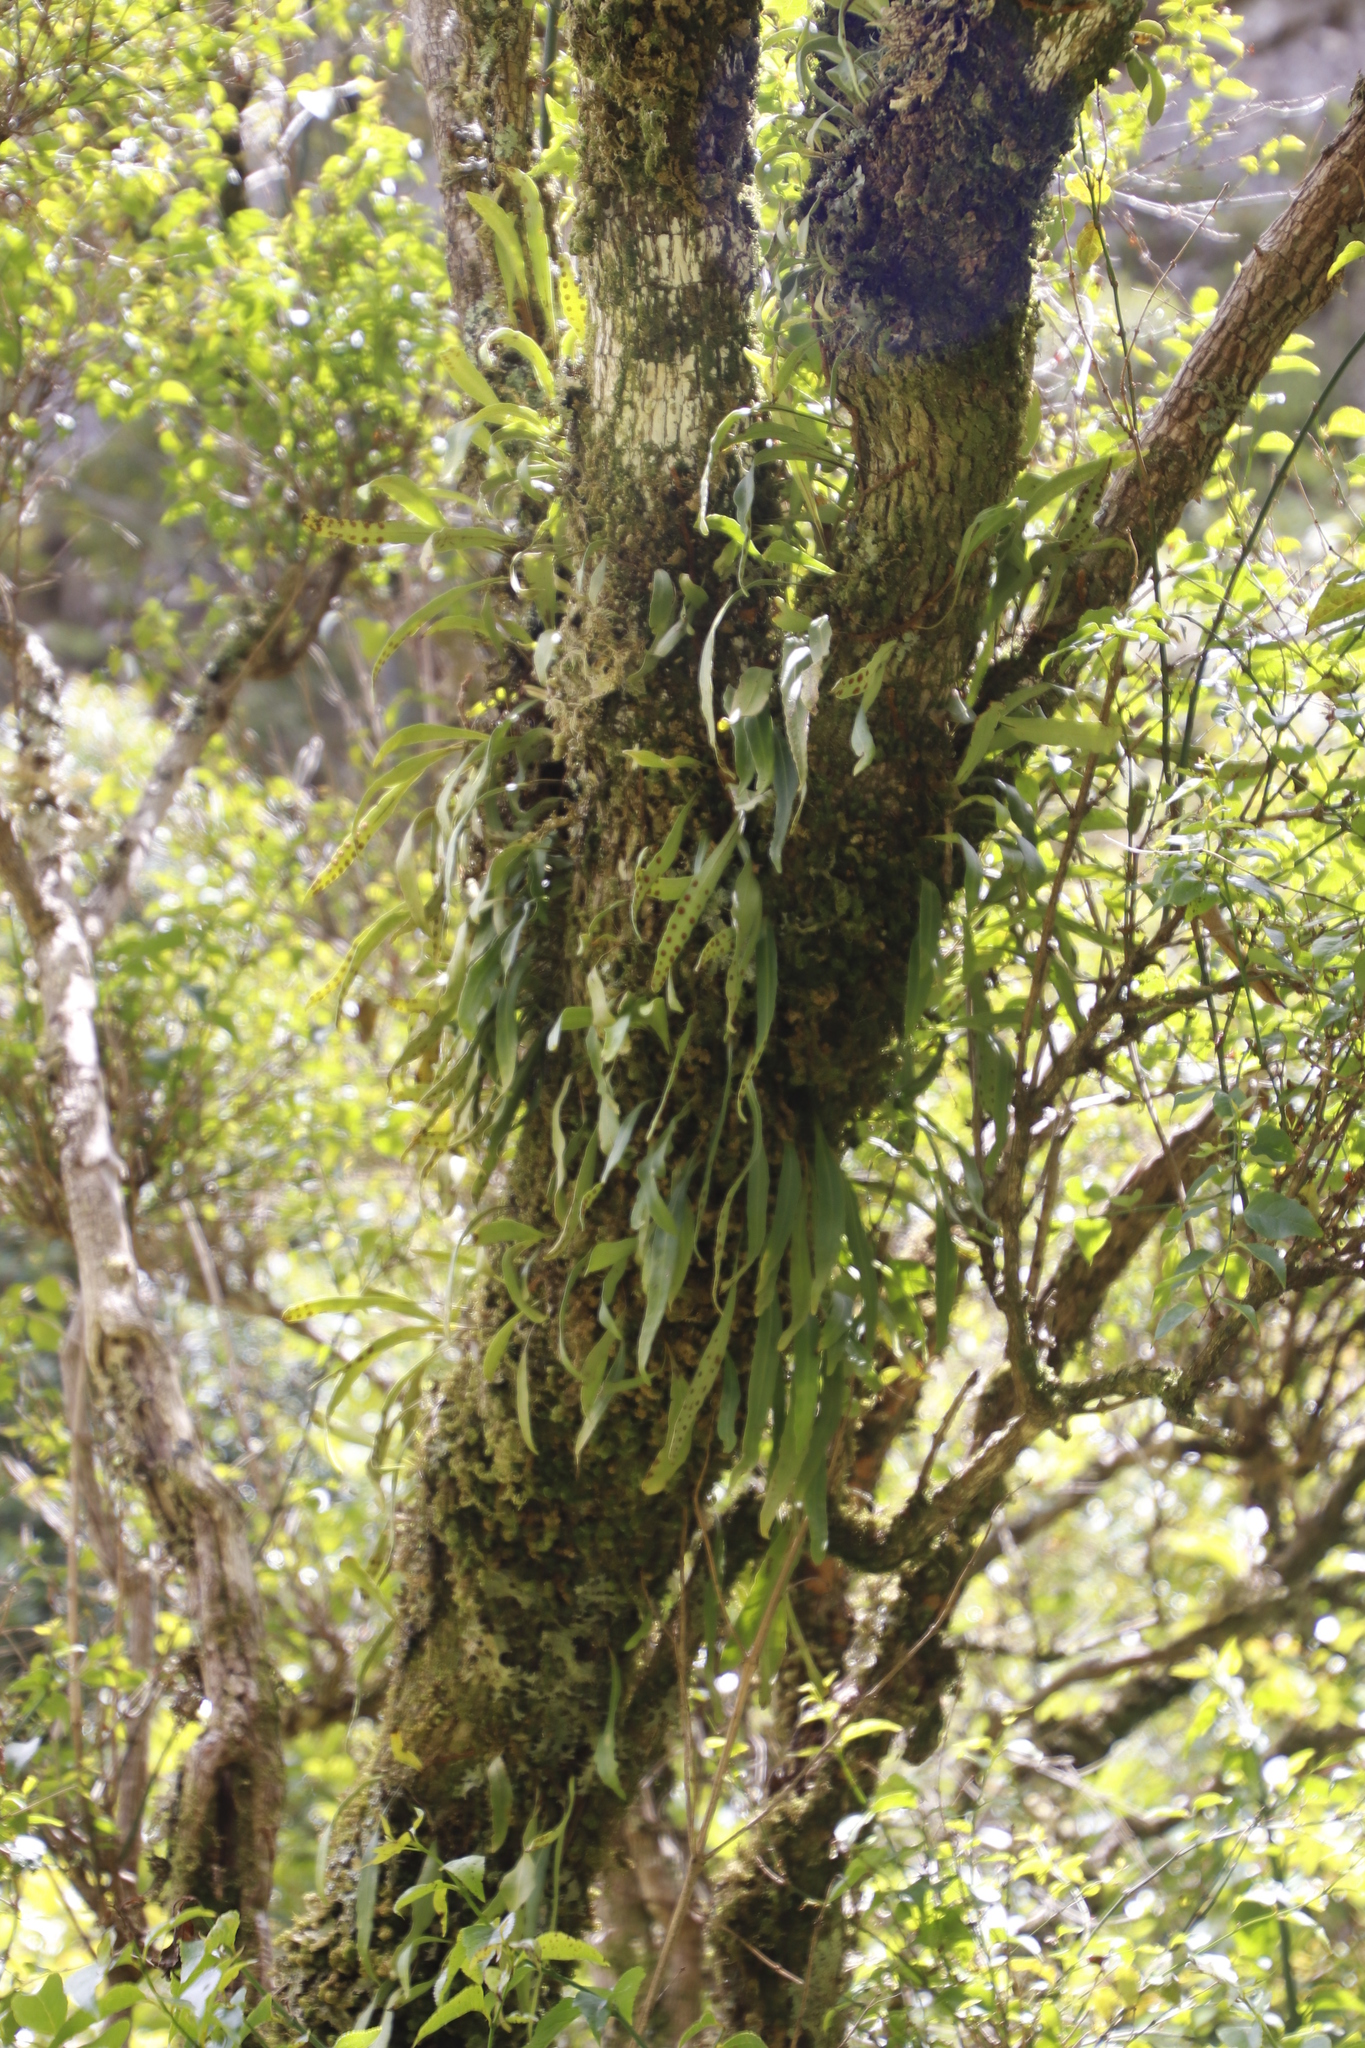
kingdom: Plantae
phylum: Tracheophyta
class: Polypodiopsida
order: Polypodiales
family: Polypodiaceae
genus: Pleopeltis
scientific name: Pleopeltis macrocarpa
